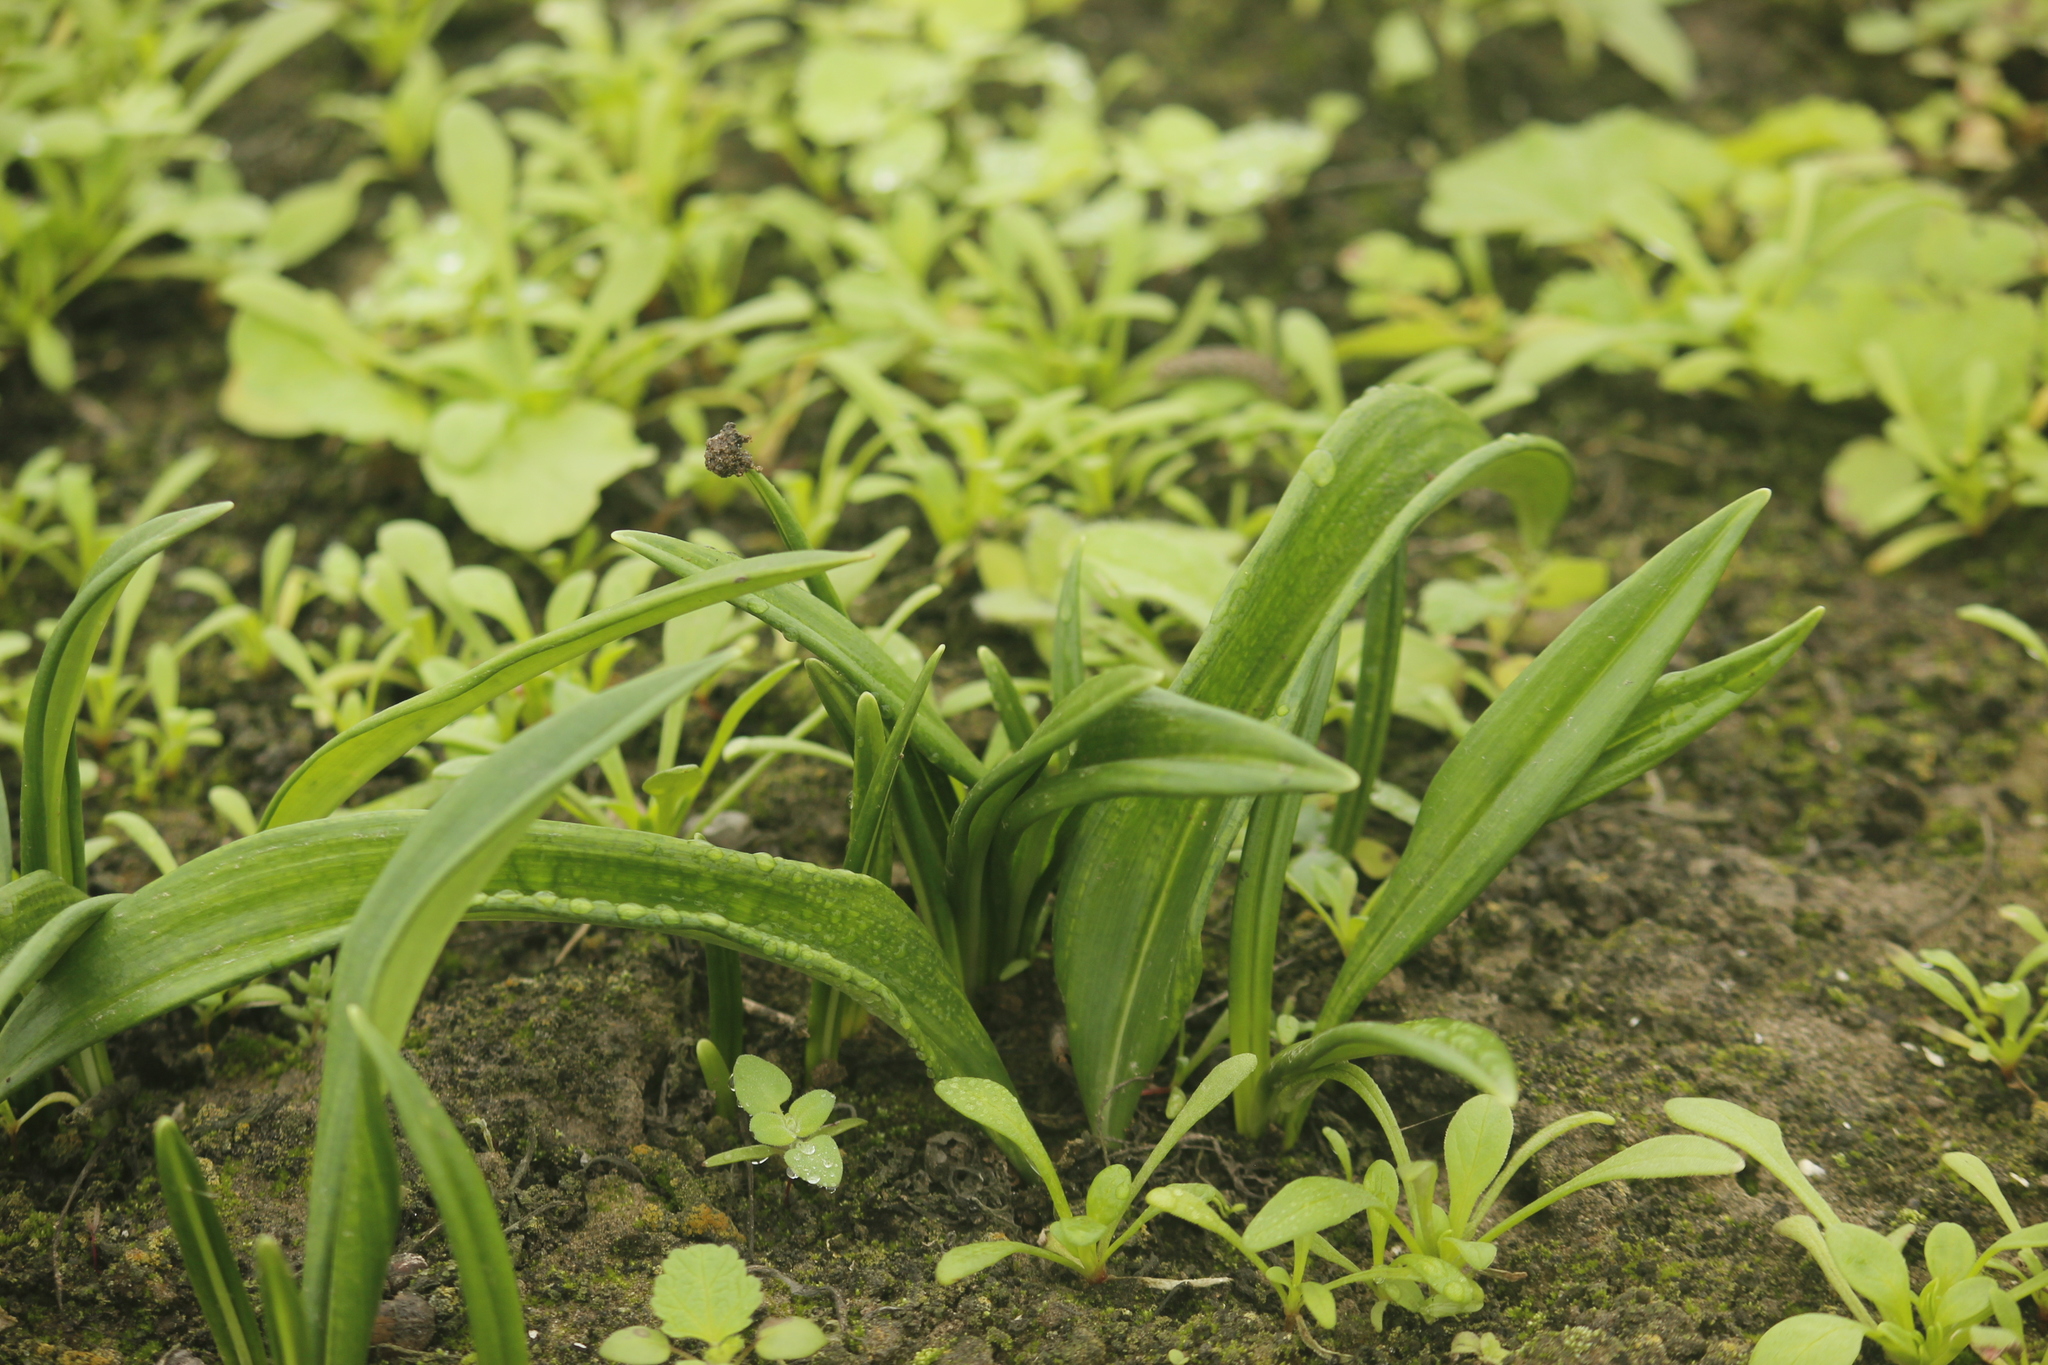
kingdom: Plantae
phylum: Tracheophyta
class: Liliopsida
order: Asparagales
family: Amaryllidaceae
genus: Stenomesson
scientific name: Stenomesson flavum
